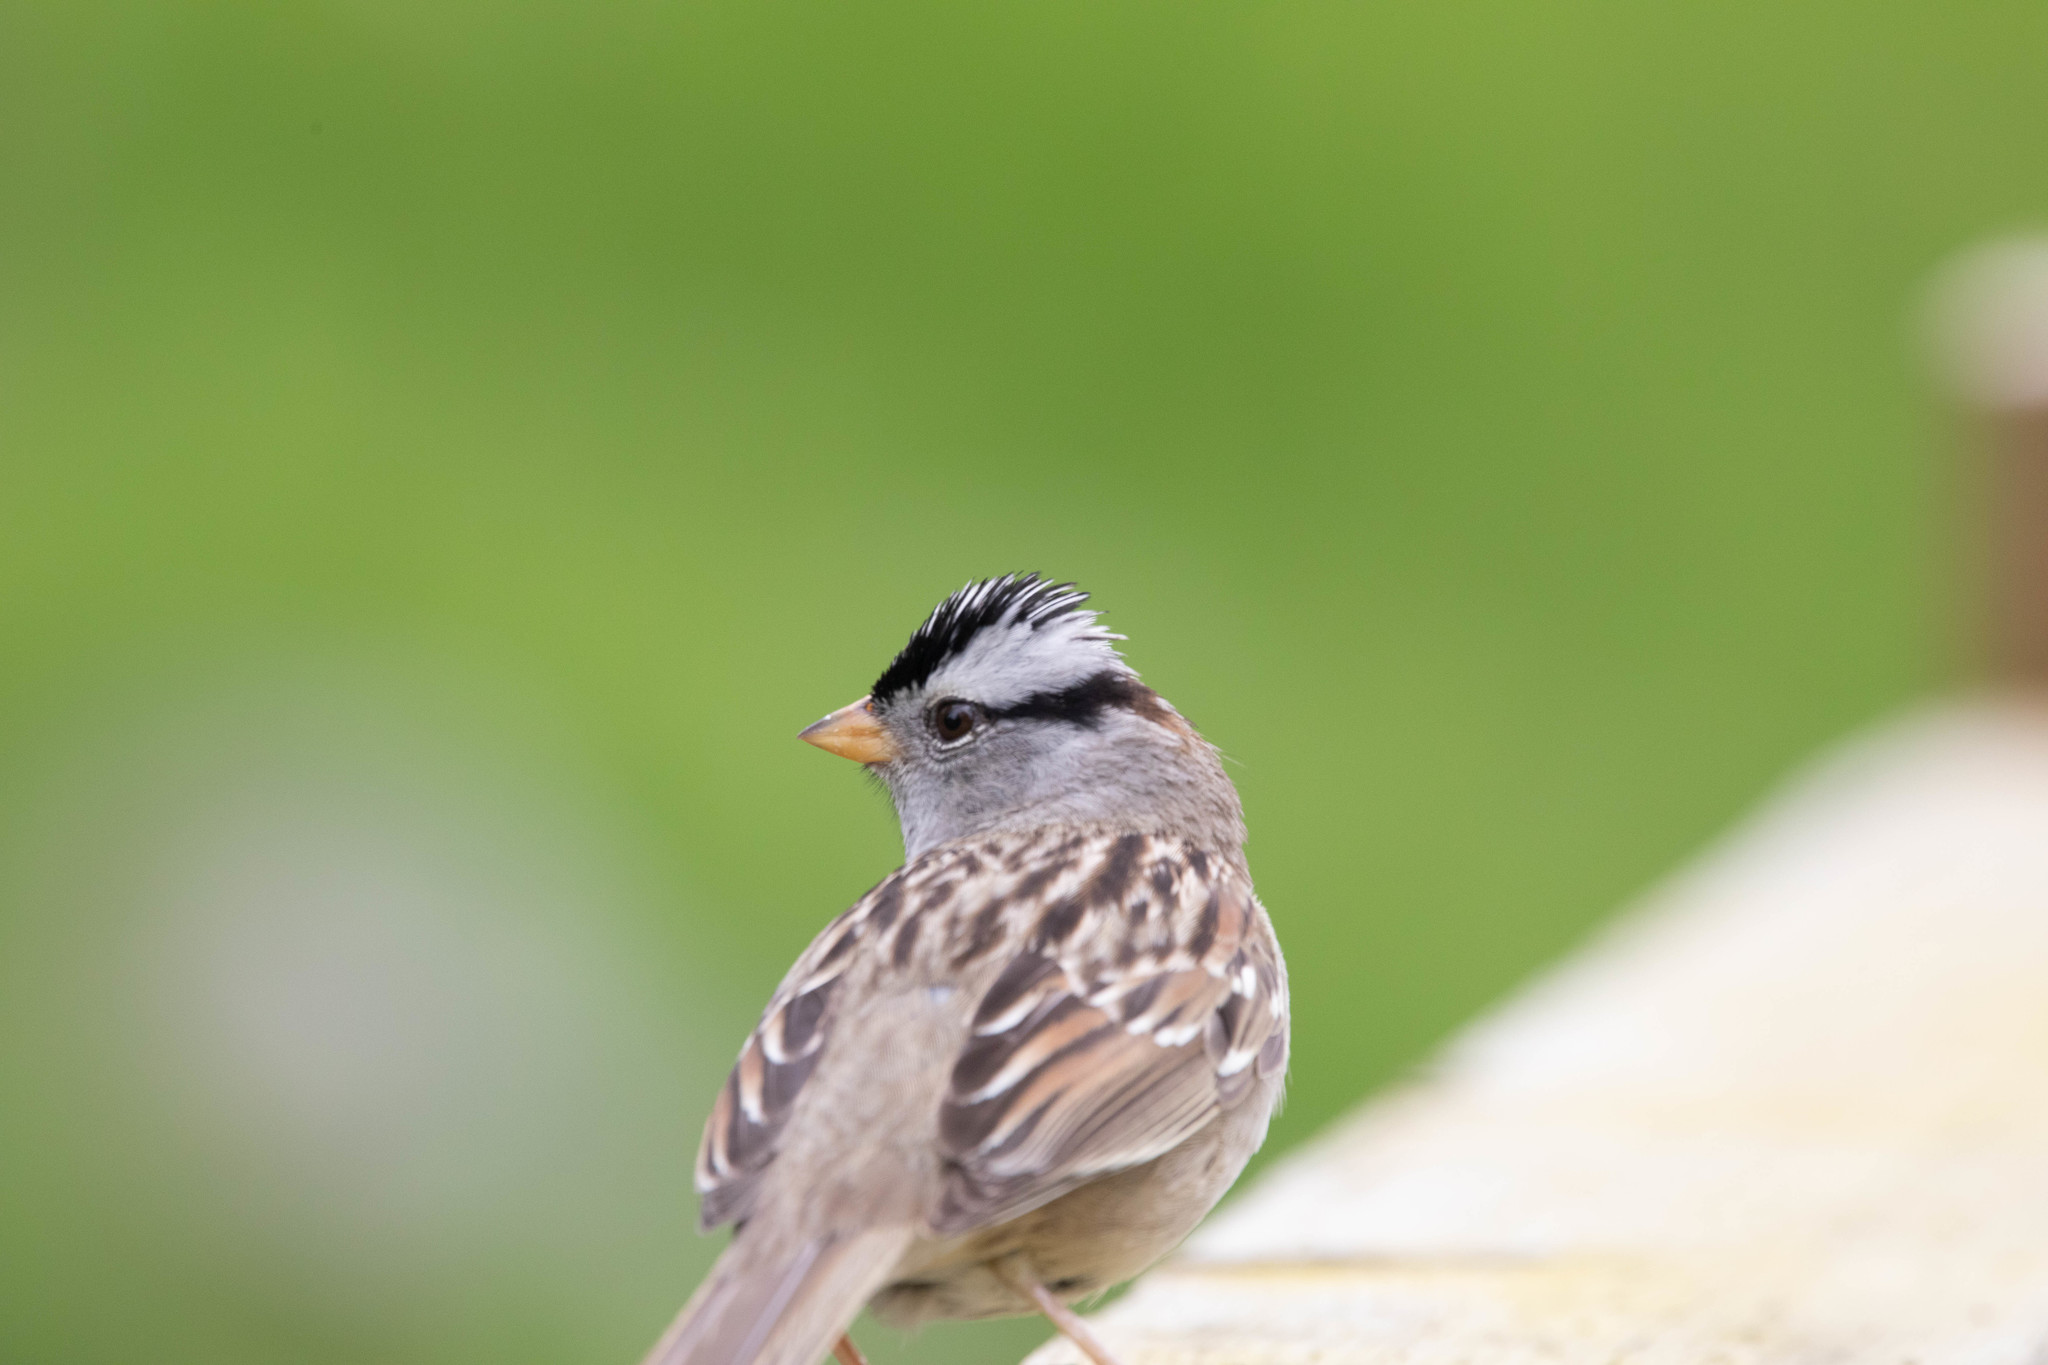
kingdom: Animalia
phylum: Chordata
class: Aves
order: Passeriformes
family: Passerellidae
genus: Zonotrichia
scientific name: Zonotrichia leucophrys
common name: White-crowned sparrow
